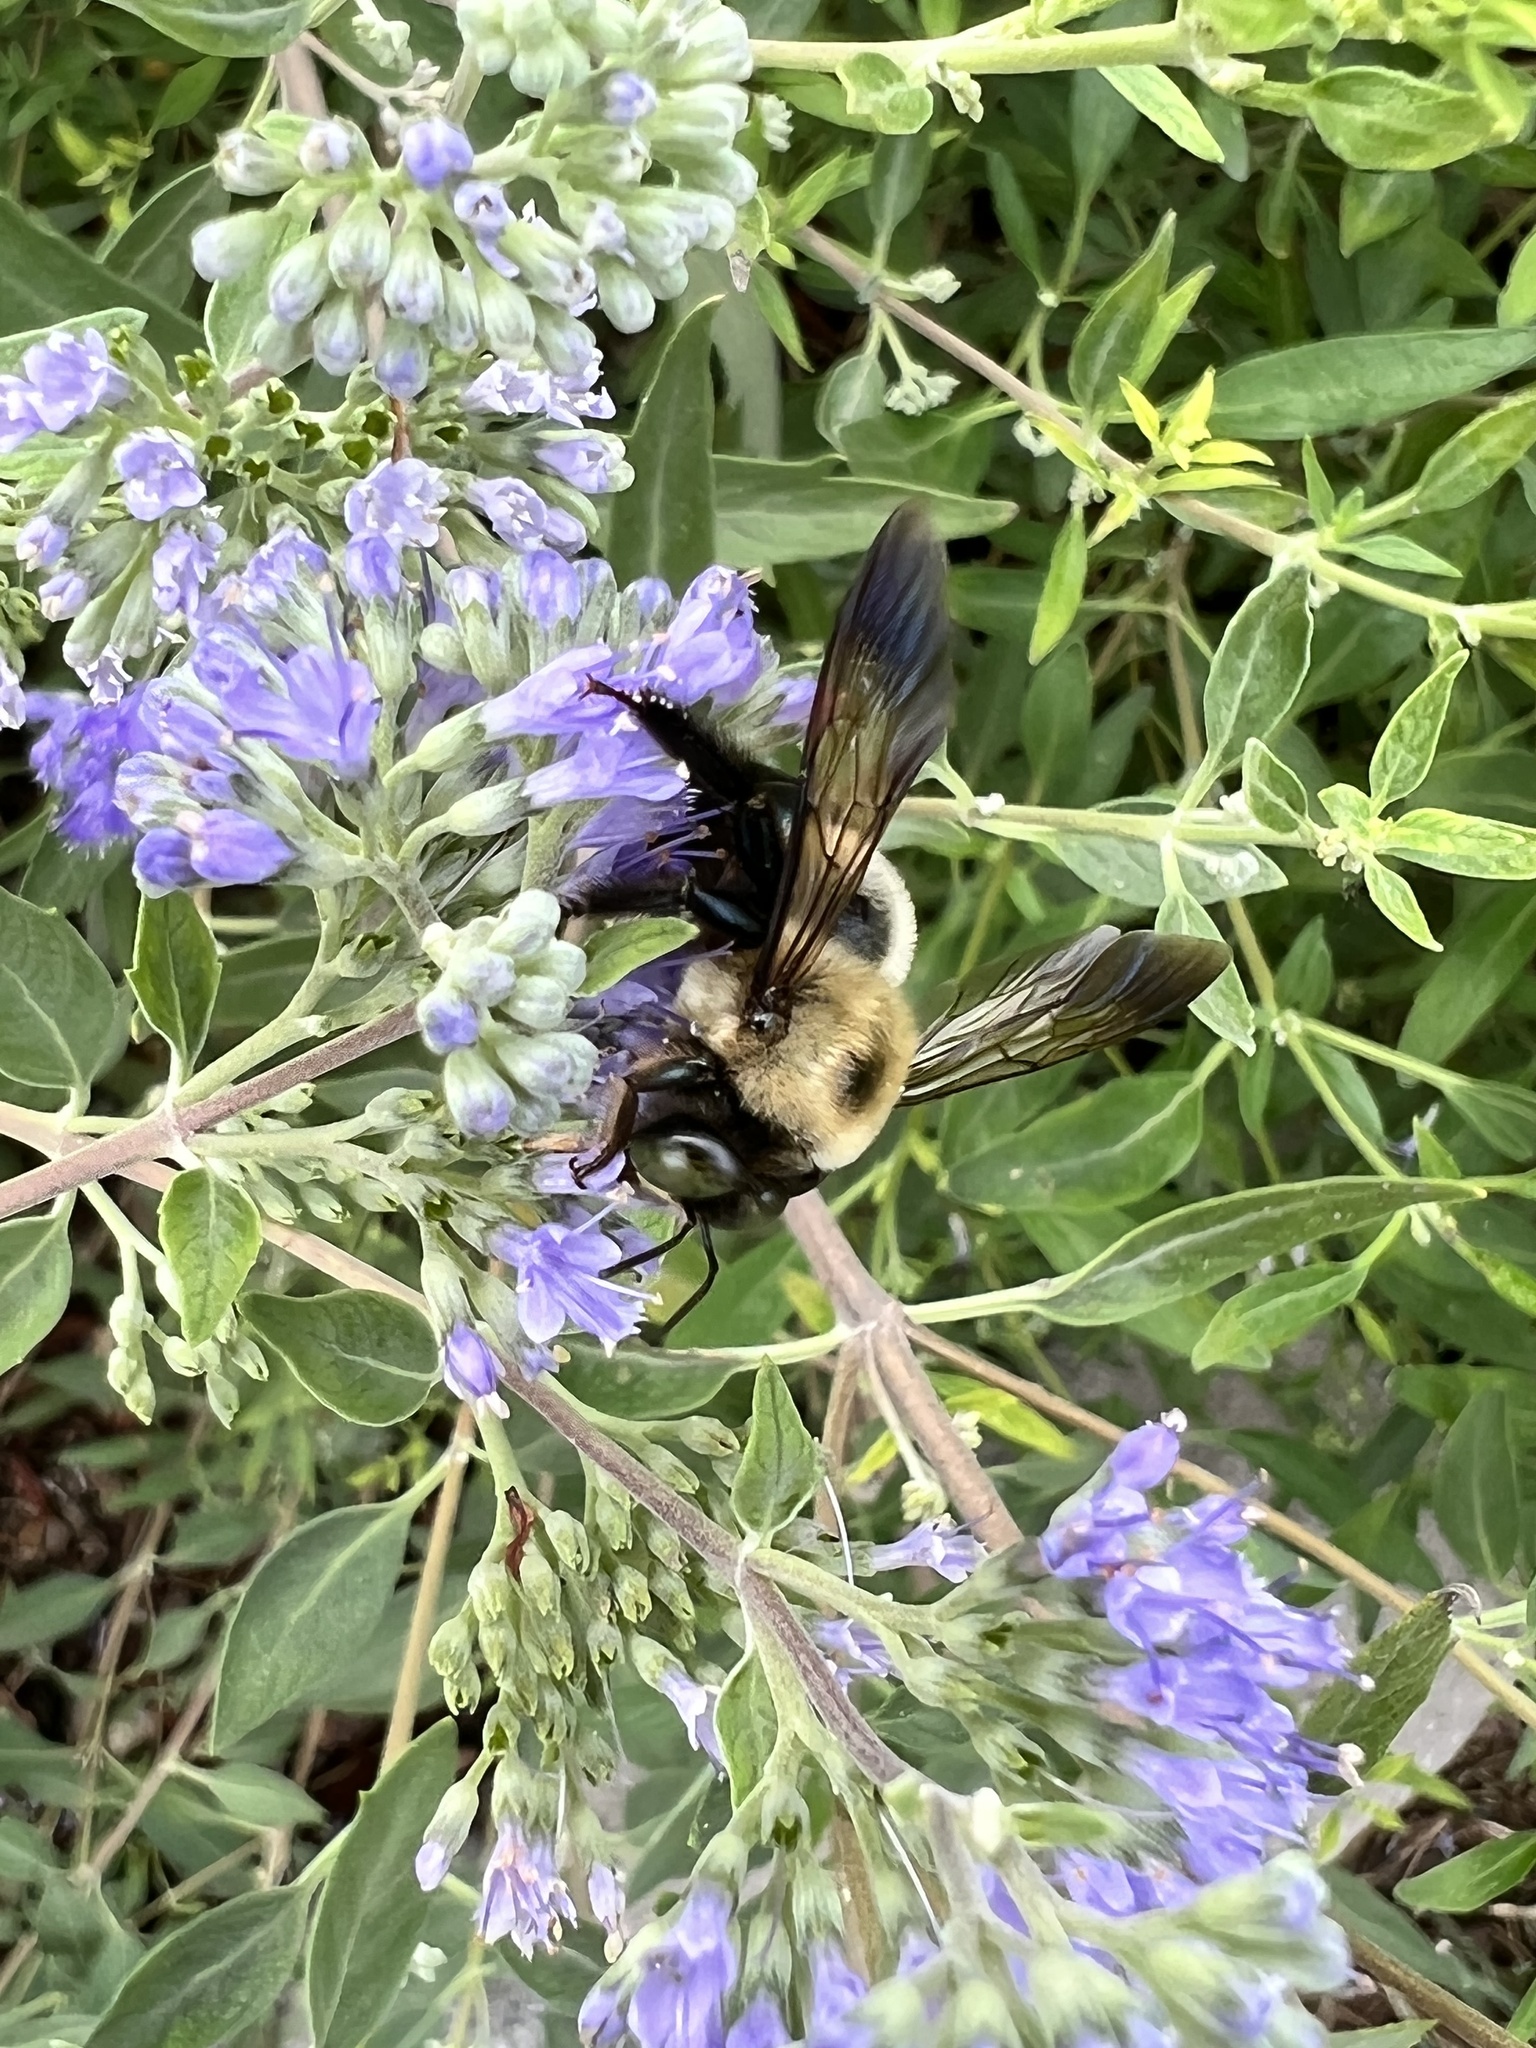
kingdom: Animalia
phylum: Arthropoda
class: Insecta
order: Hymenoptera
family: Apidae
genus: Xylocopa
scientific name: Xylocopa virginica
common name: Carpenter bee
